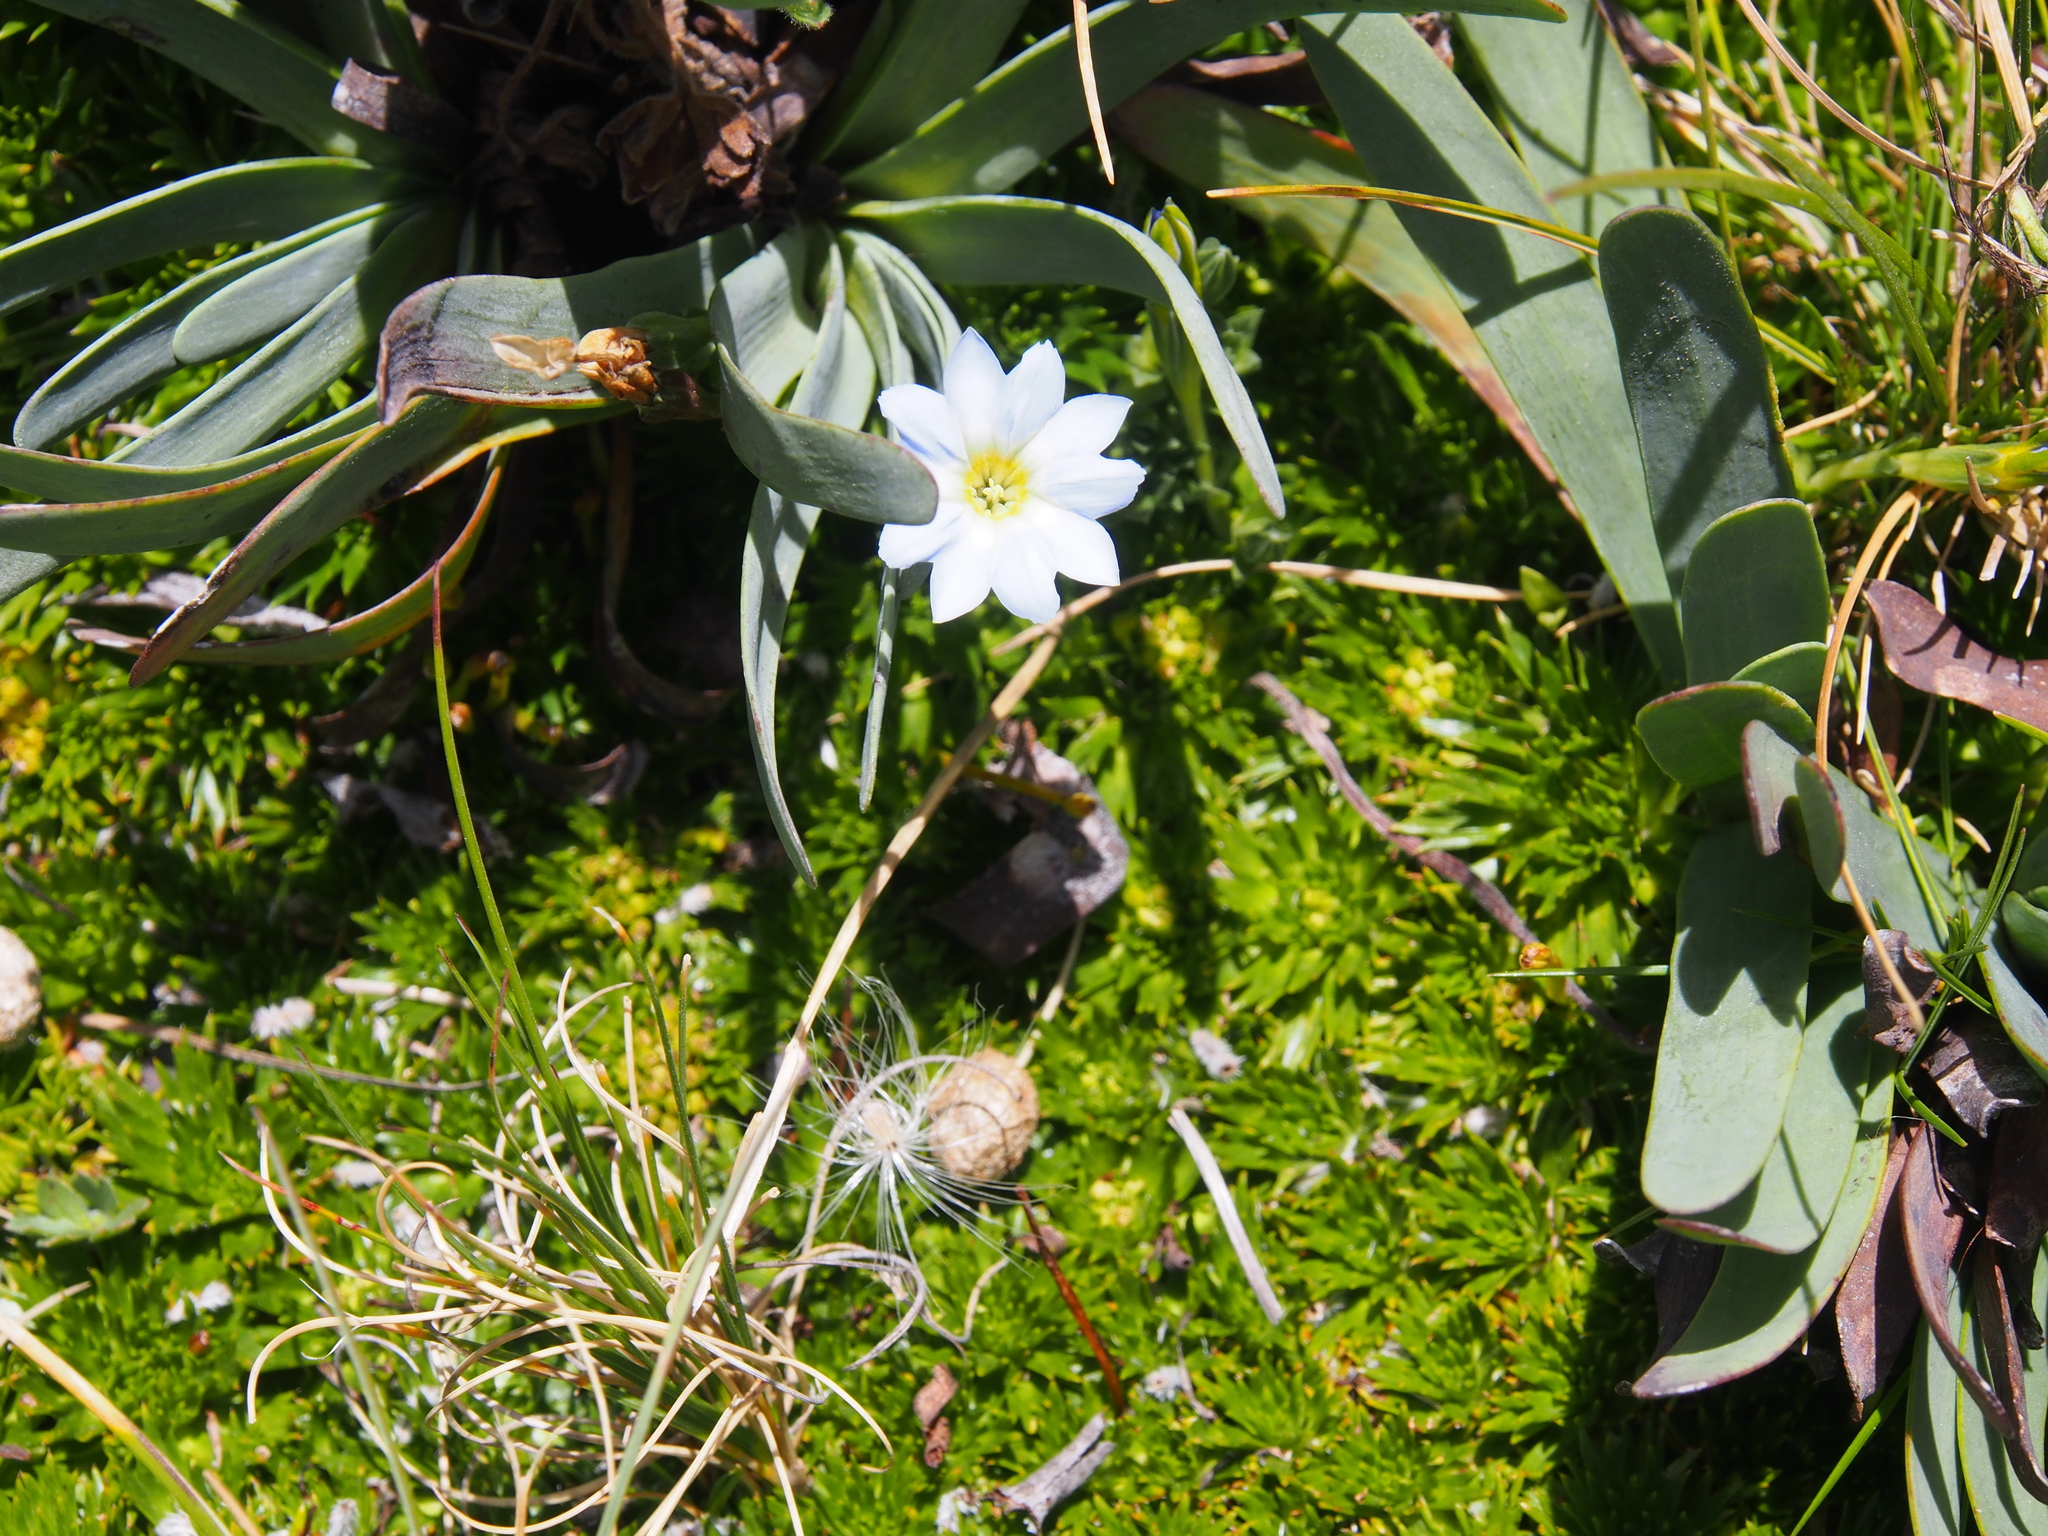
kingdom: Plantae
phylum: Tracheophyta
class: Magnoliopsida
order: Gentianales
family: Gentianaceae
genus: Gentiana
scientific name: Gentiana sedifolia
